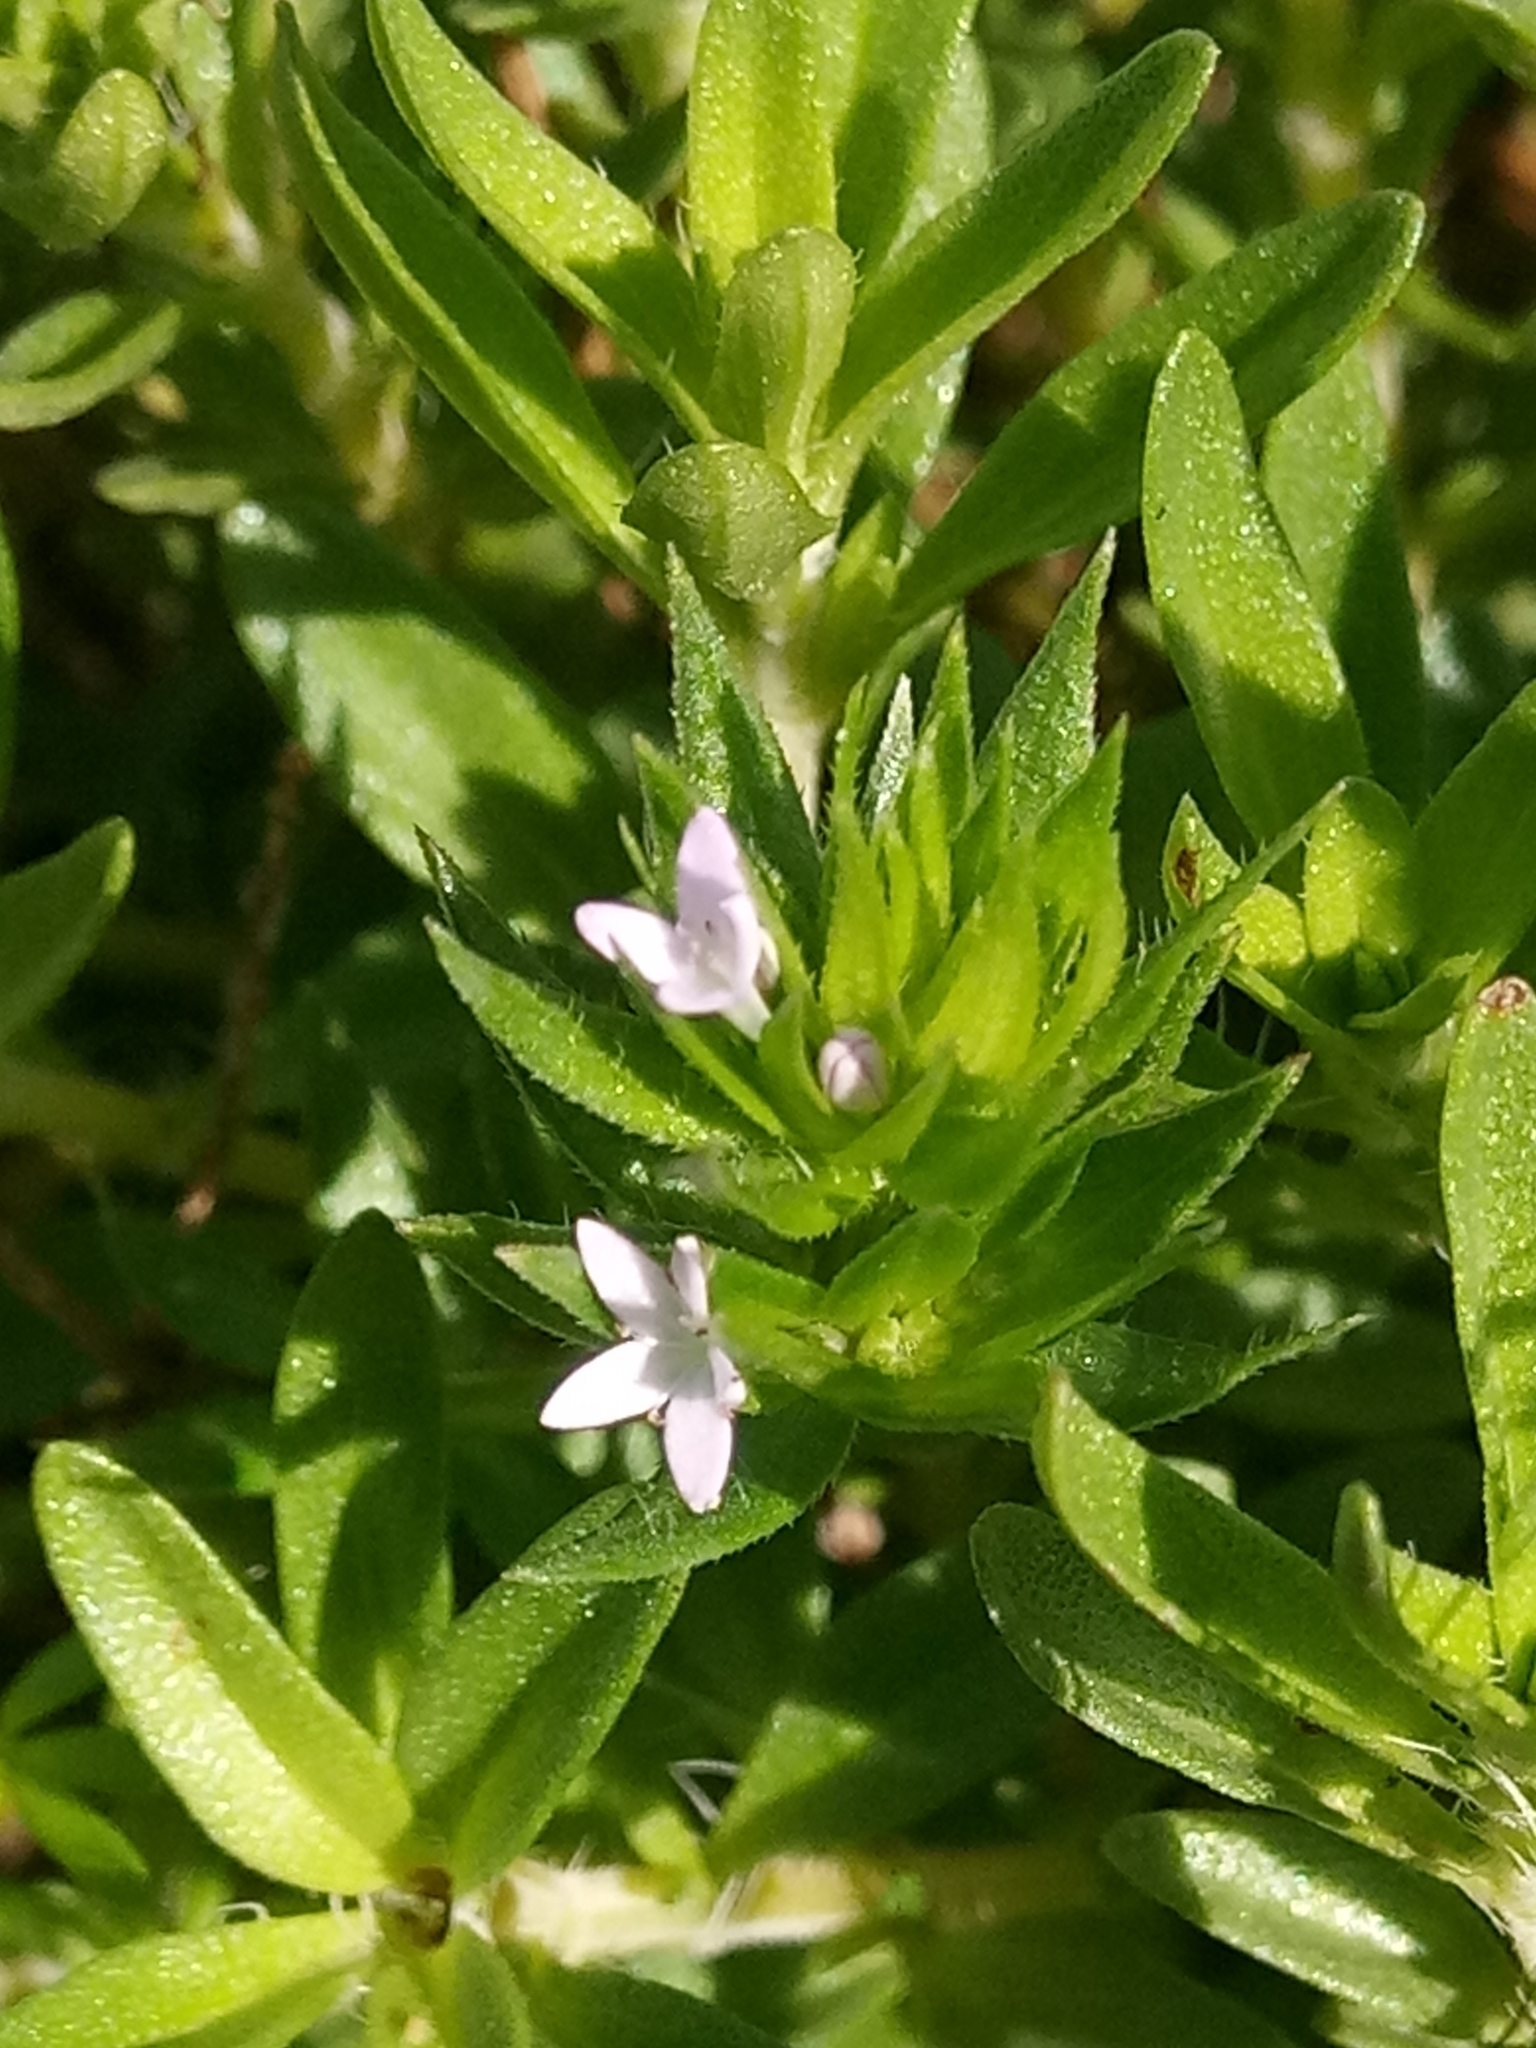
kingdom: Plantae
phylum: Tracheophyta
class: Magnoliopsida
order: Gentianales
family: Rubiaceae
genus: Sherardia
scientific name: Sherardia arvensis
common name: Field madder
